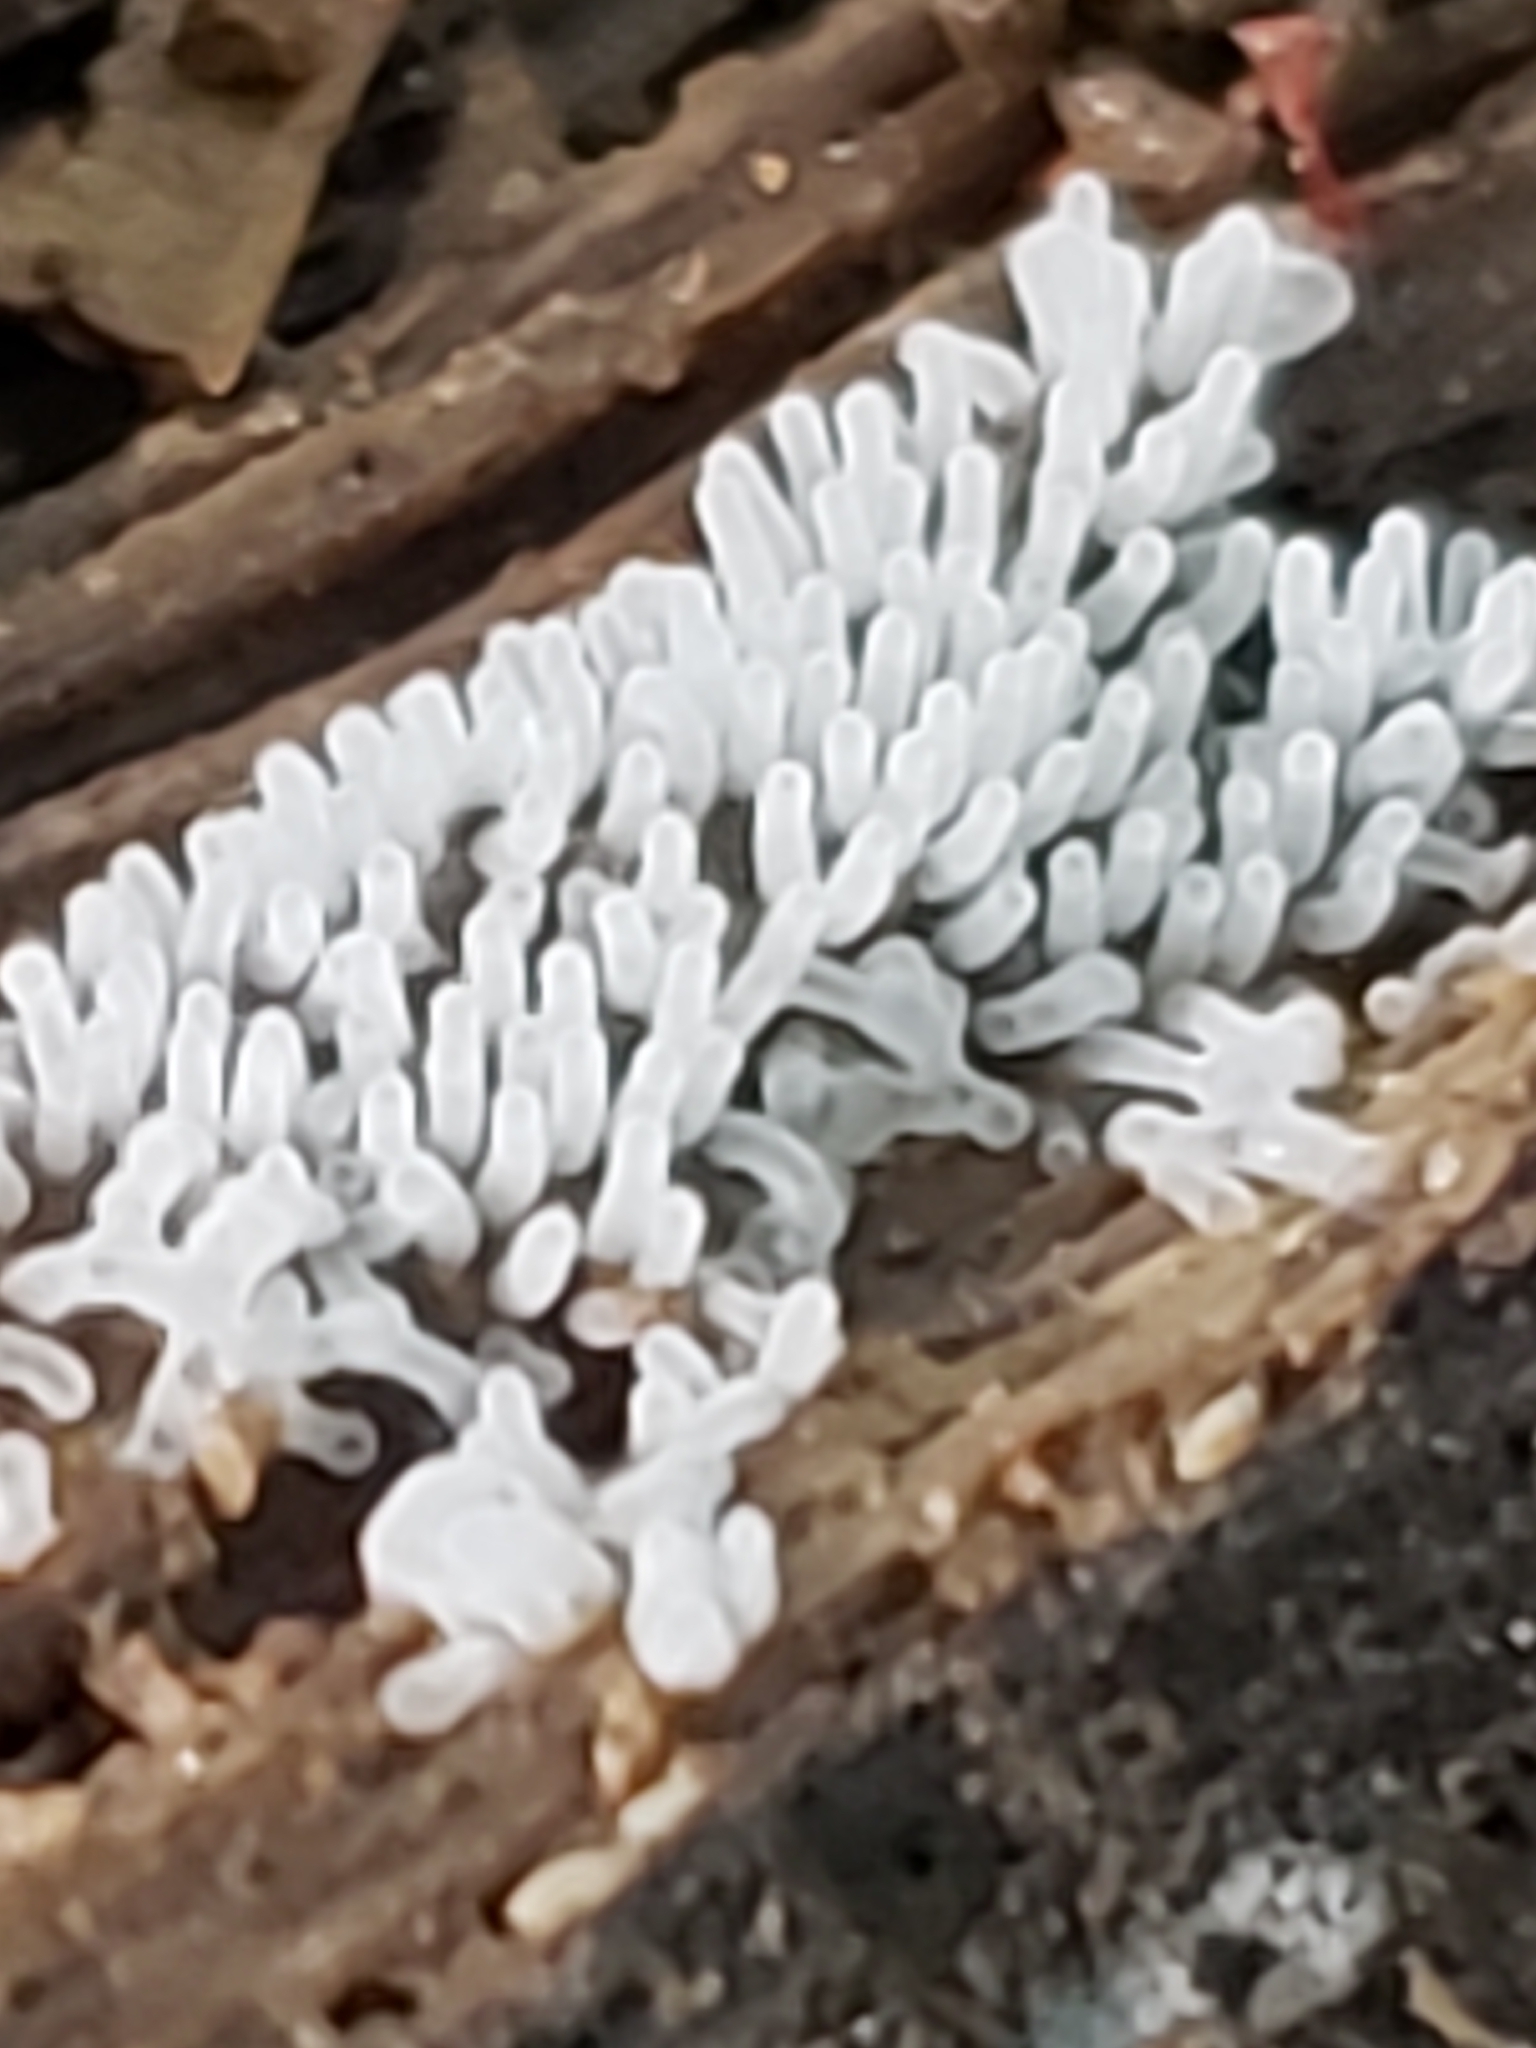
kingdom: Protozoa
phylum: Mycetozoa
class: Protosteliomycetes
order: Ceratiomyxales
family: Ceratiomyxaceae
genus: Ceratiomyxa
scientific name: Ceratiomyxa fruticulosa
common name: Honeycomb coral slime mold
